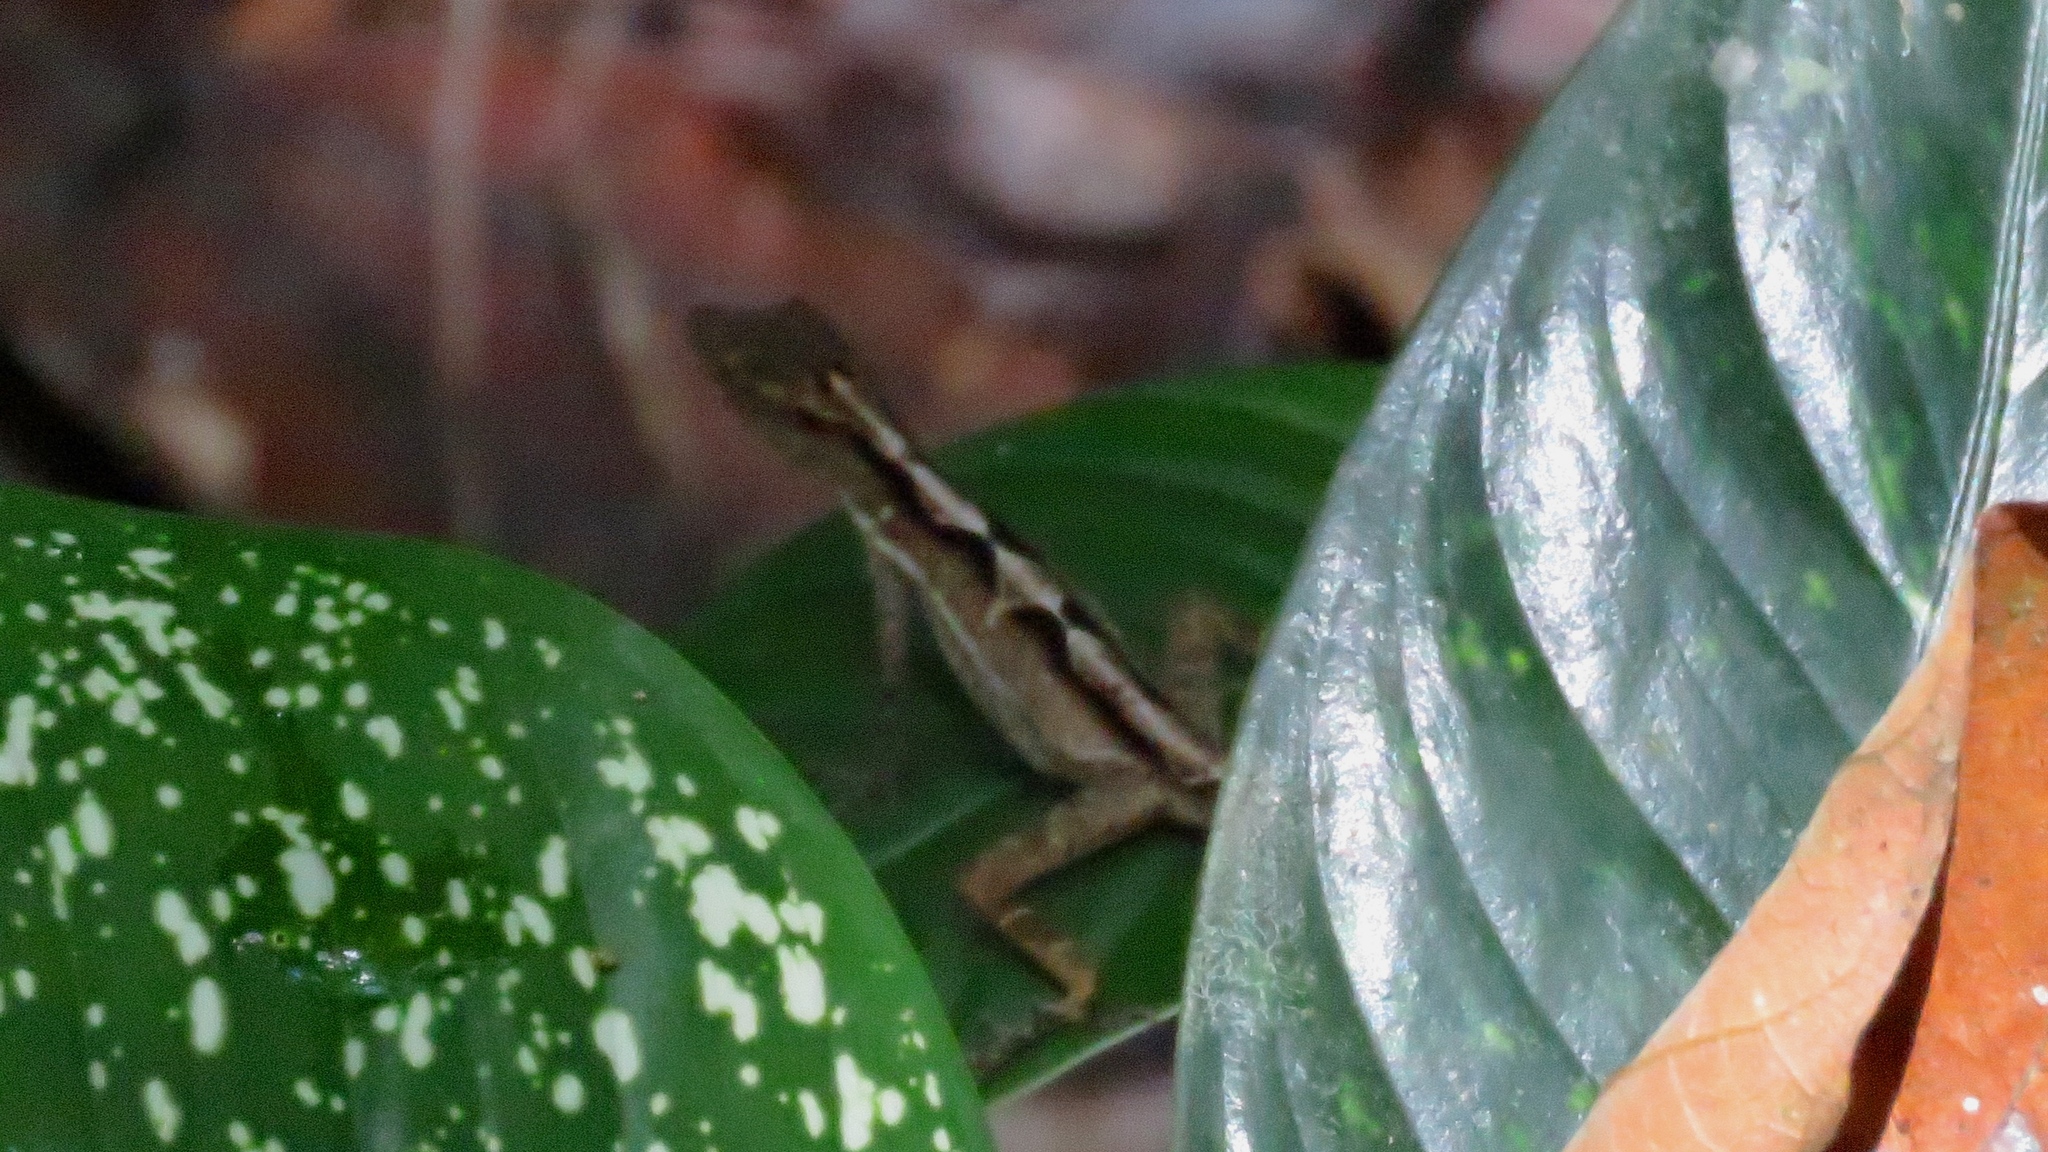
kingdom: Animalia
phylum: Chordata
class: Squamata
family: Dactyloidae
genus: Anolis
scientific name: Anolis limifrons
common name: Border anole
